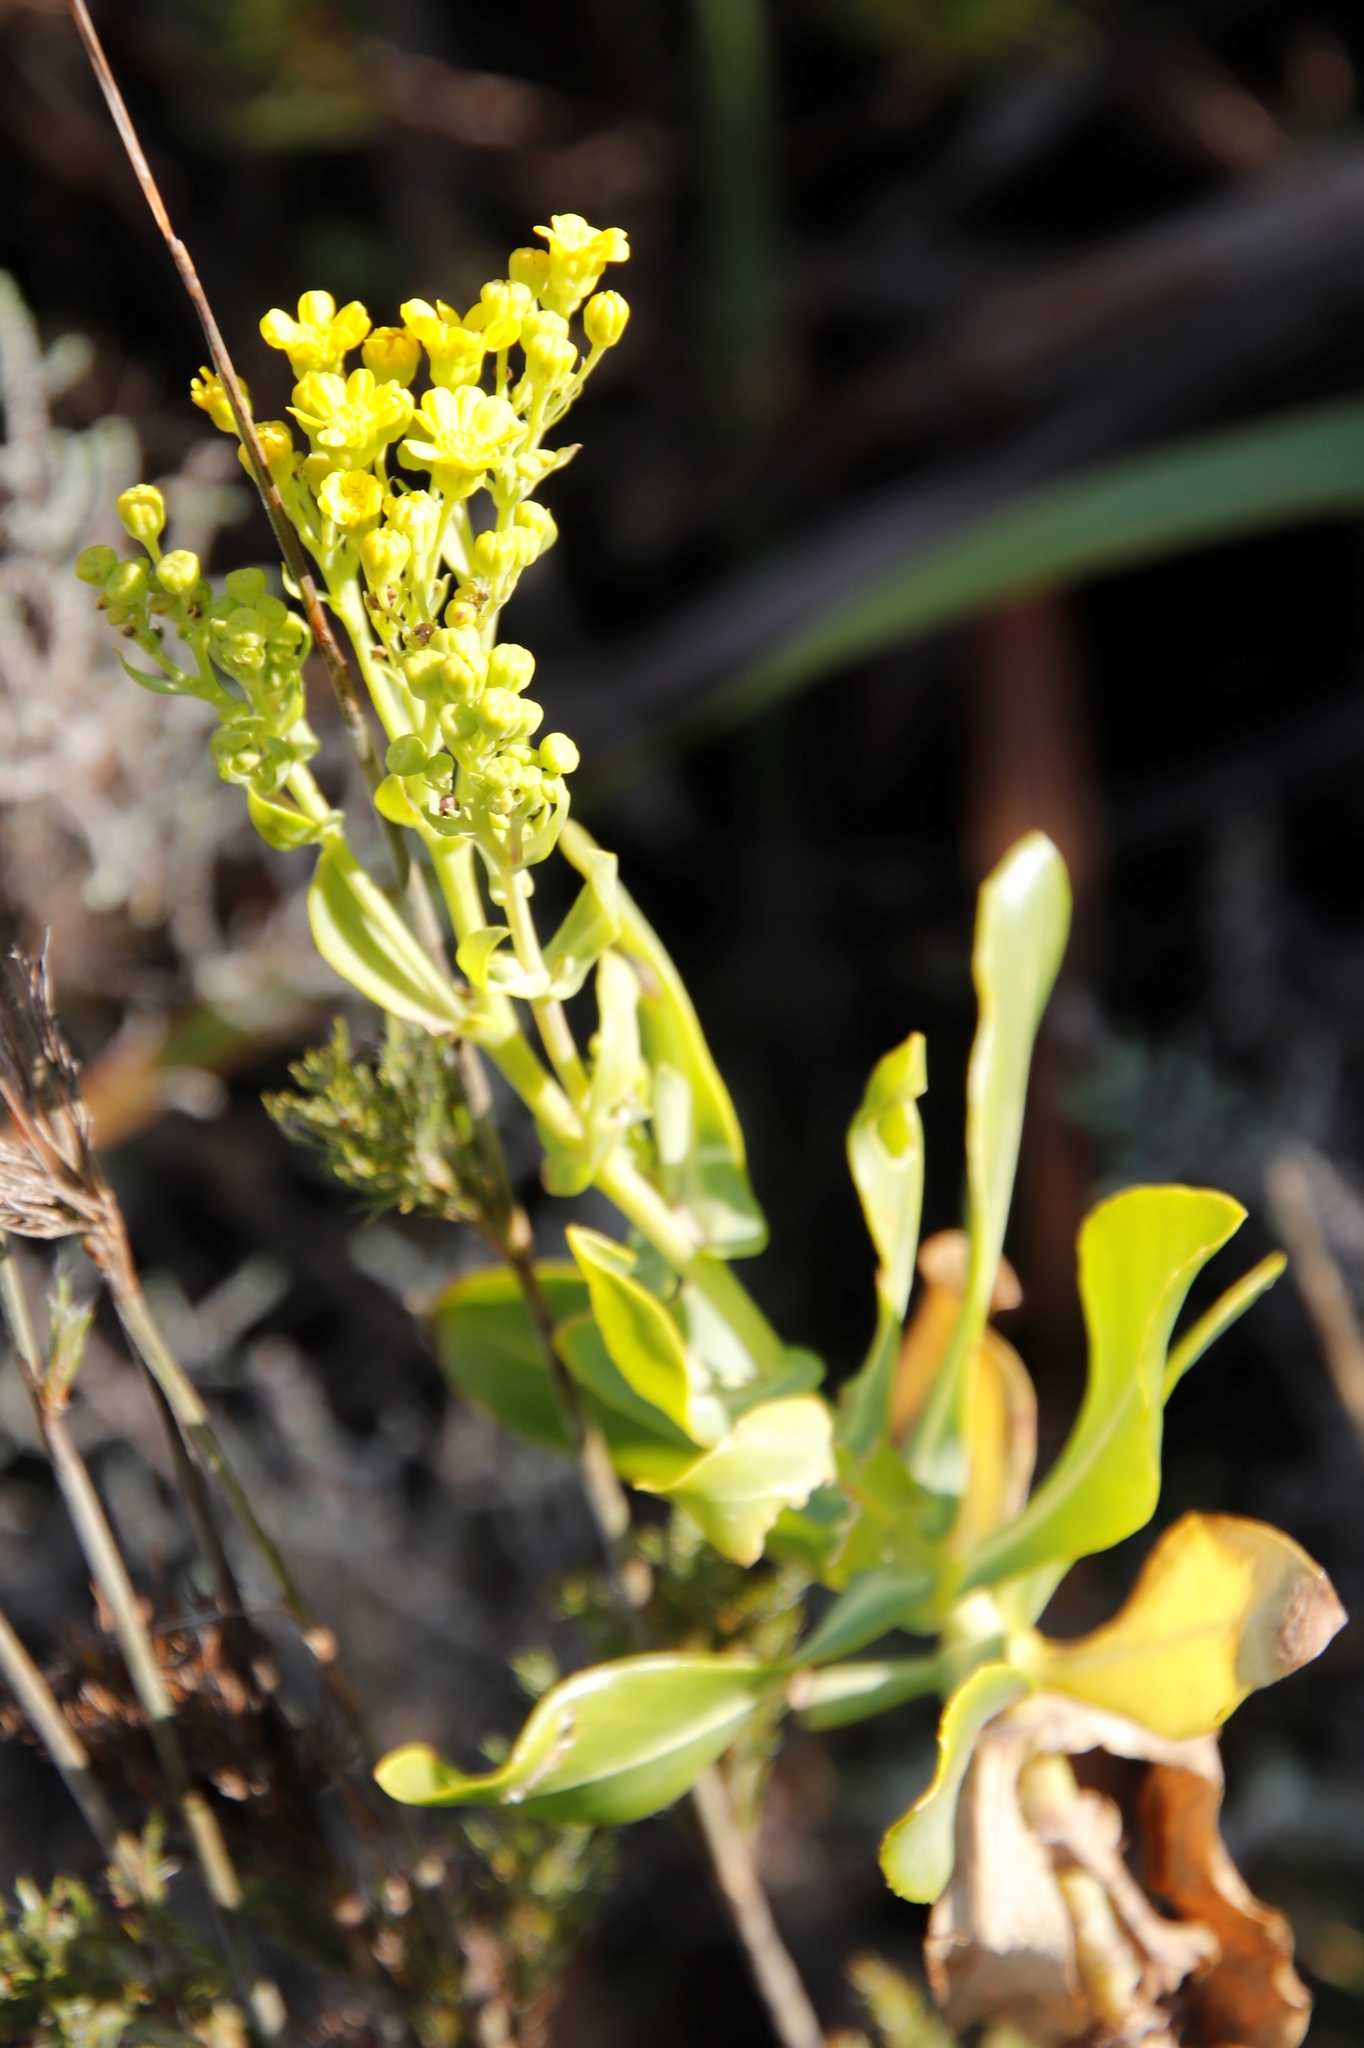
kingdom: Plantae
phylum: Tracheophyta
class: Magnoliopsida
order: Asterales
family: Asteraceae
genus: Othonna
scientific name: Othonna parviflora
